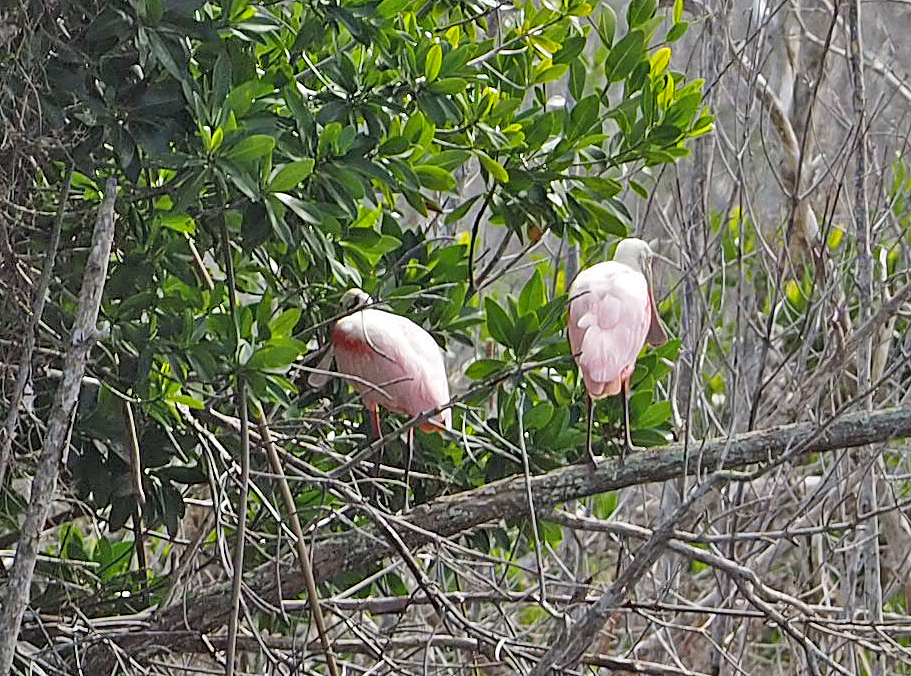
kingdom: Animalia
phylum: Chordata
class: Aves
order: Pelecaniformes
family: Threskiornithidae
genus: Platalea
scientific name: Platalea ajaja
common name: Roseate spoonbill
